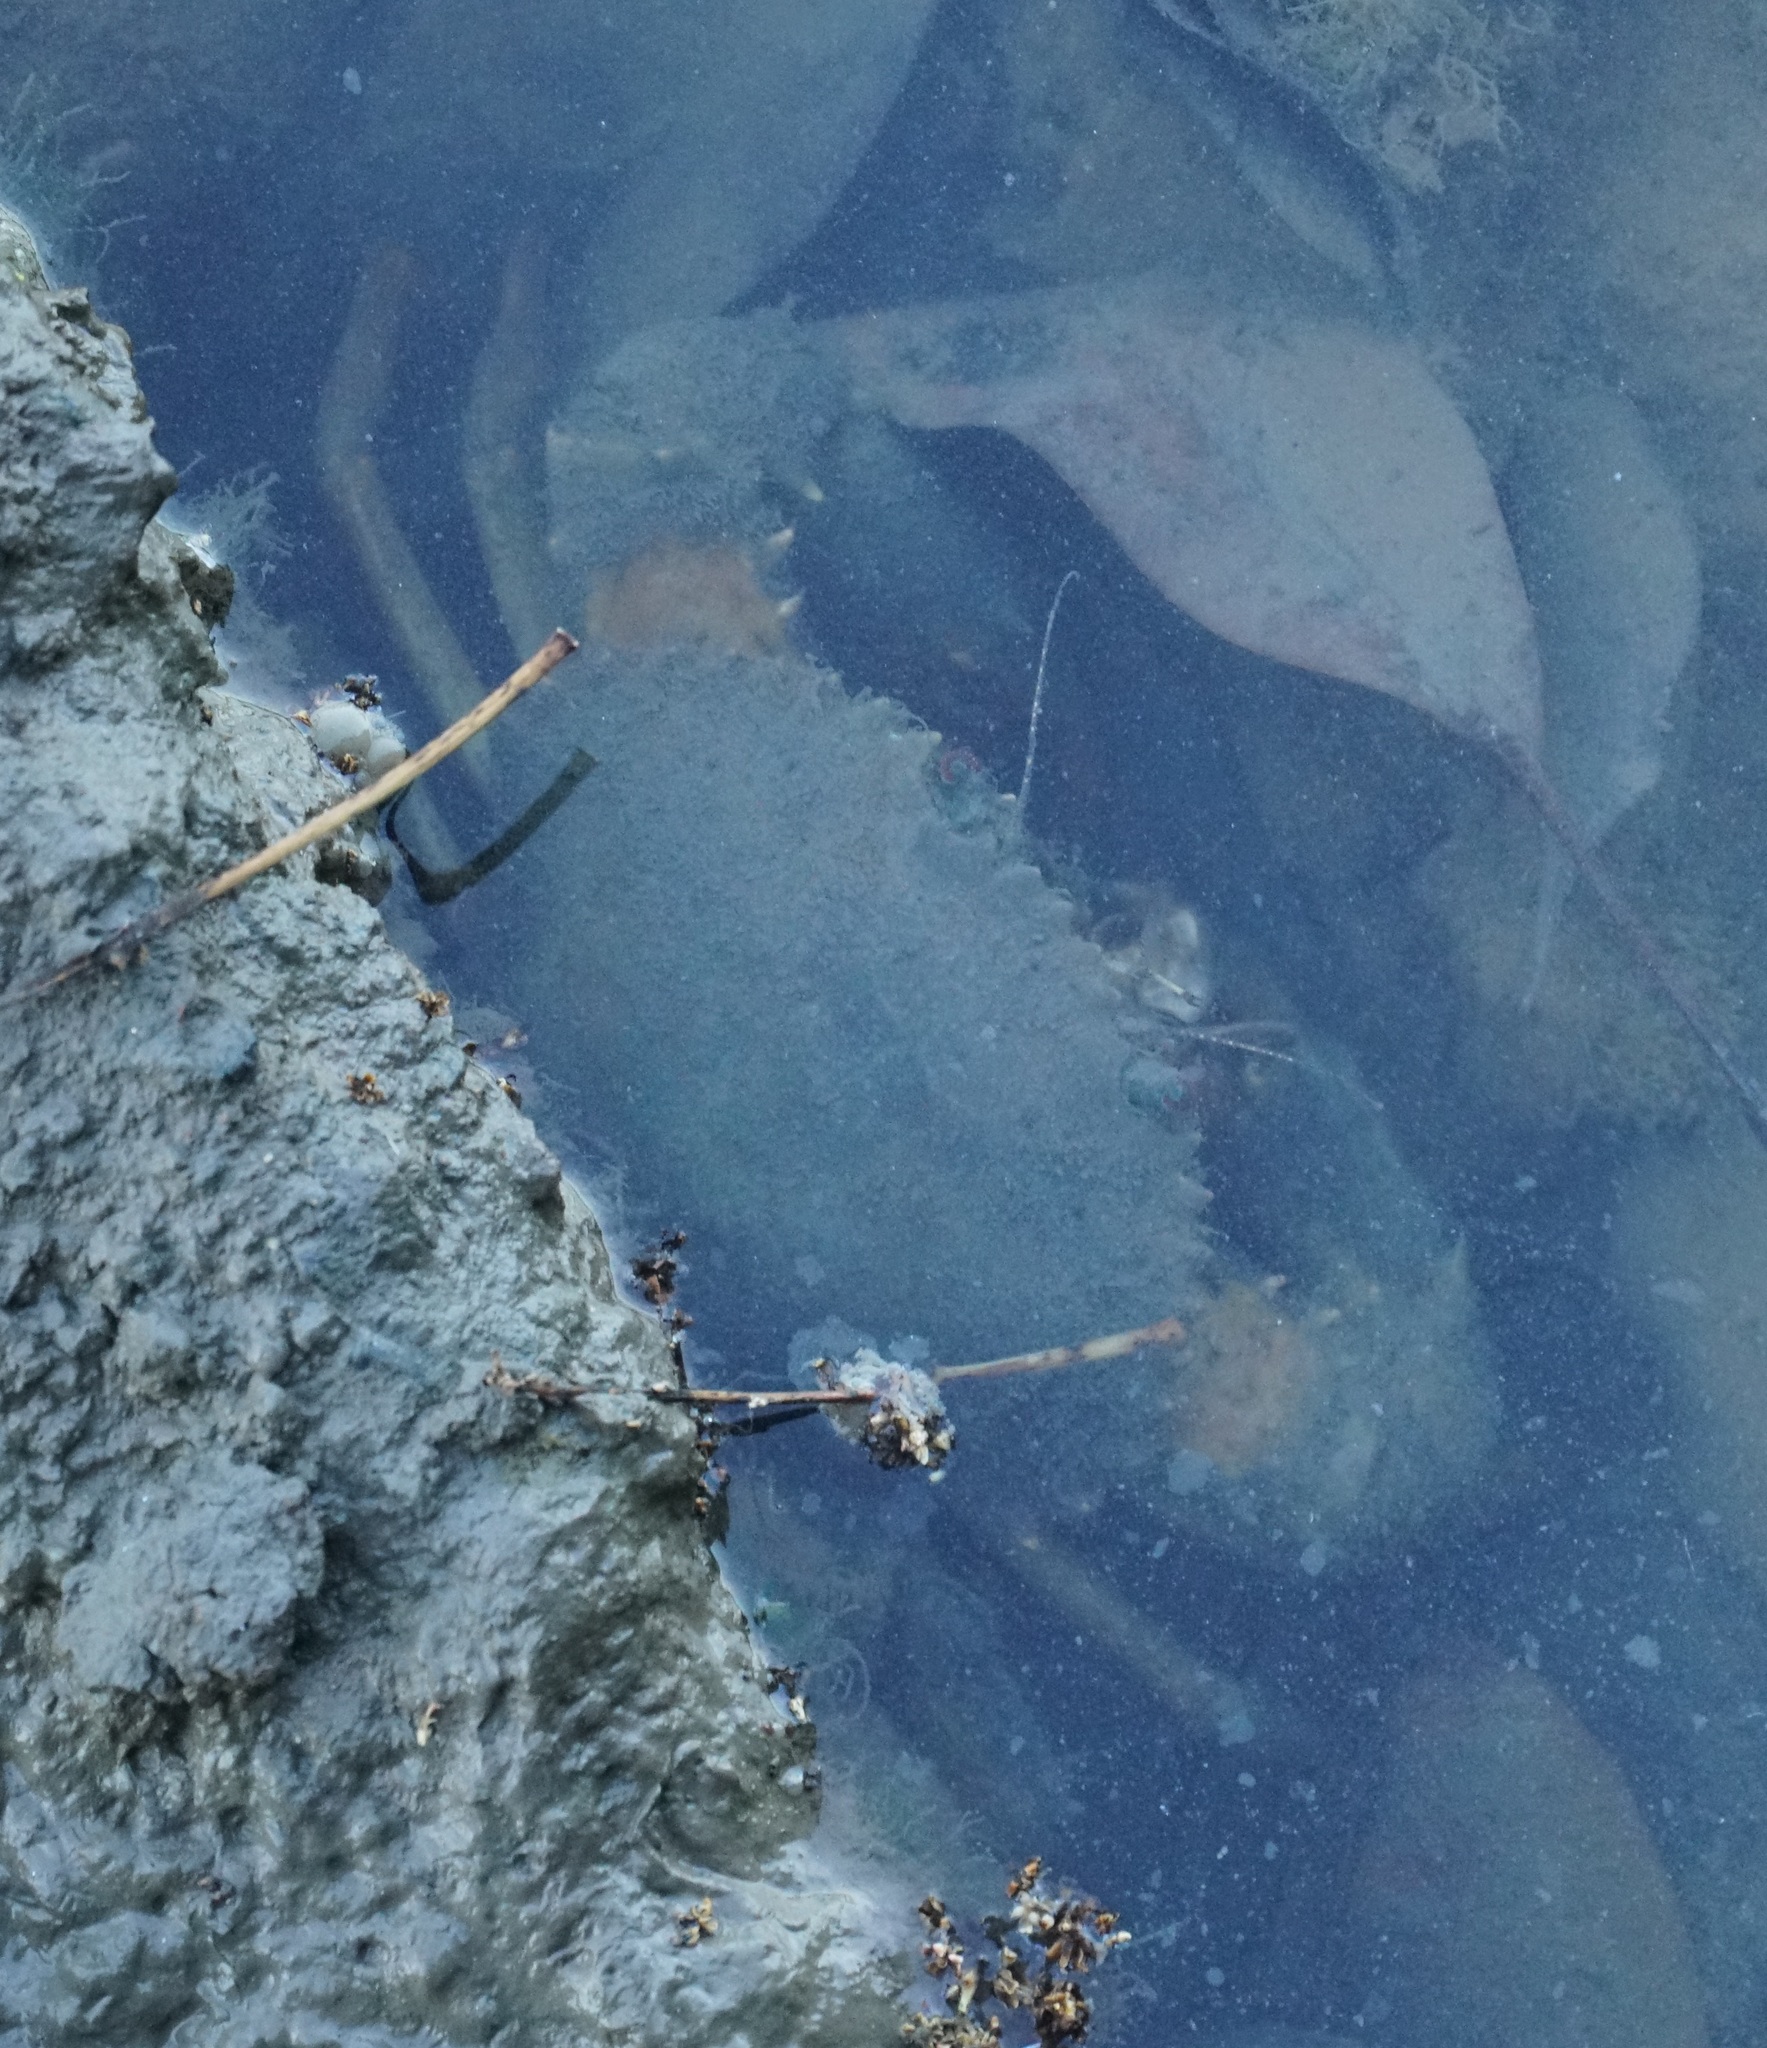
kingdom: Animalia
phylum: Arthropoda
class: Malacostraca
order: Decapoda
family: Portunidae
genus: Scylla
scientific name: Scylla serrata
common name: Giant mud crab
